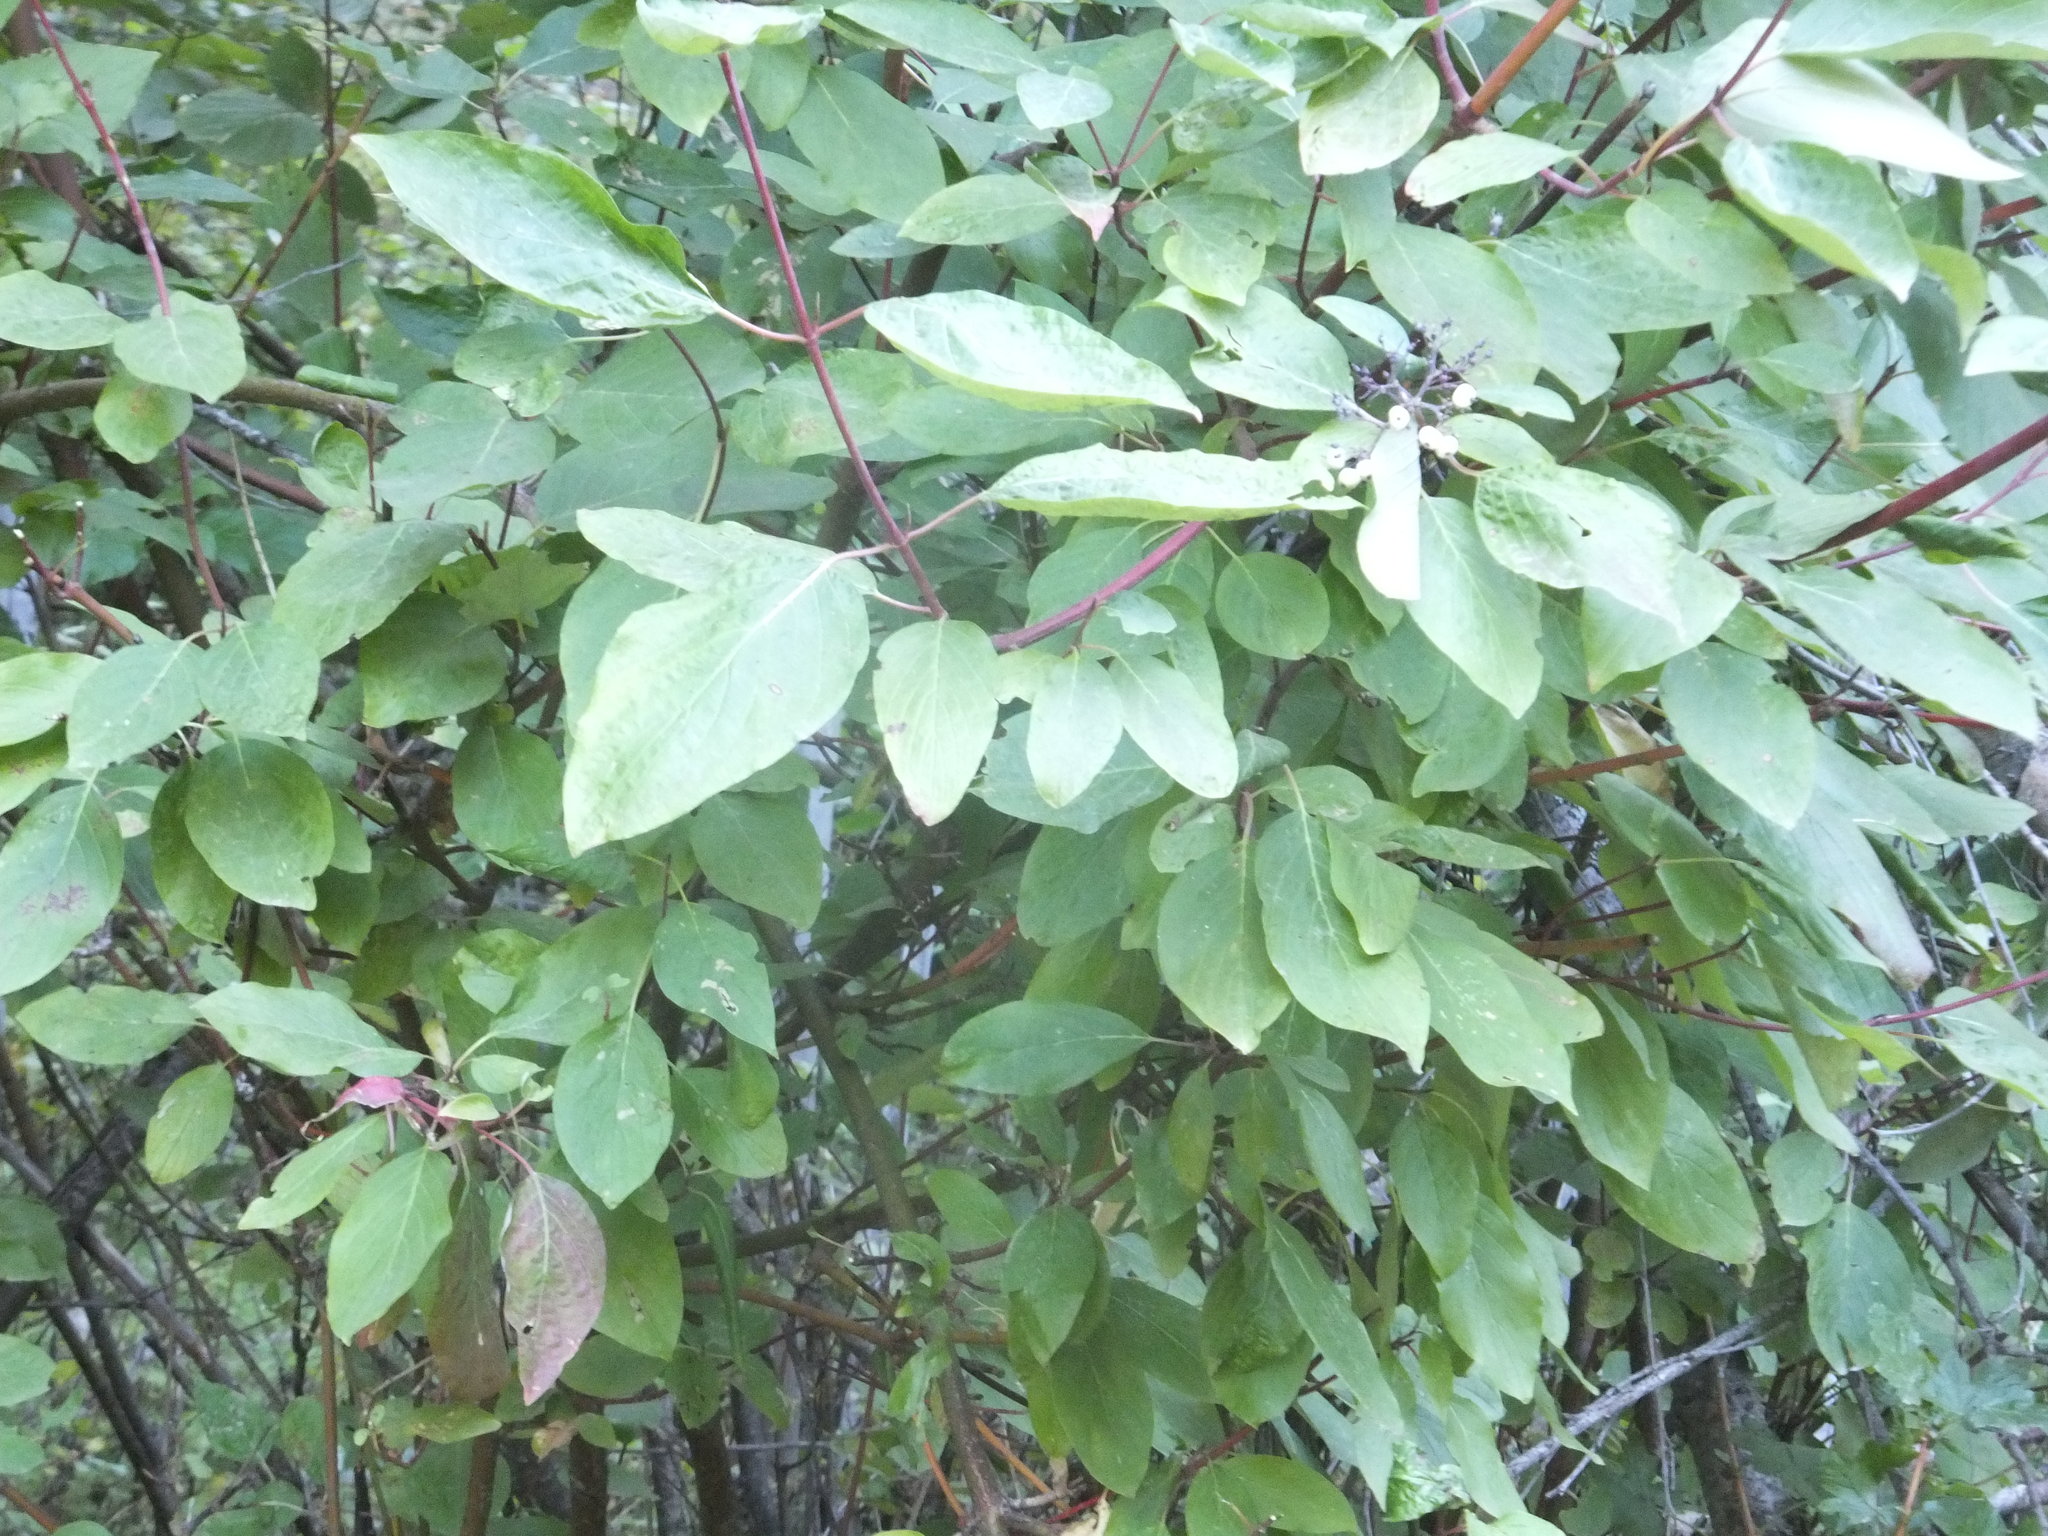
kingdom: Plantae
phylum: Tracheophyta
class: Magnoliopsida
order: Cornales
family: Cornaceae
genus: Cornus
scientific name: Cornus sericea
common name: Red-osier dogwood
